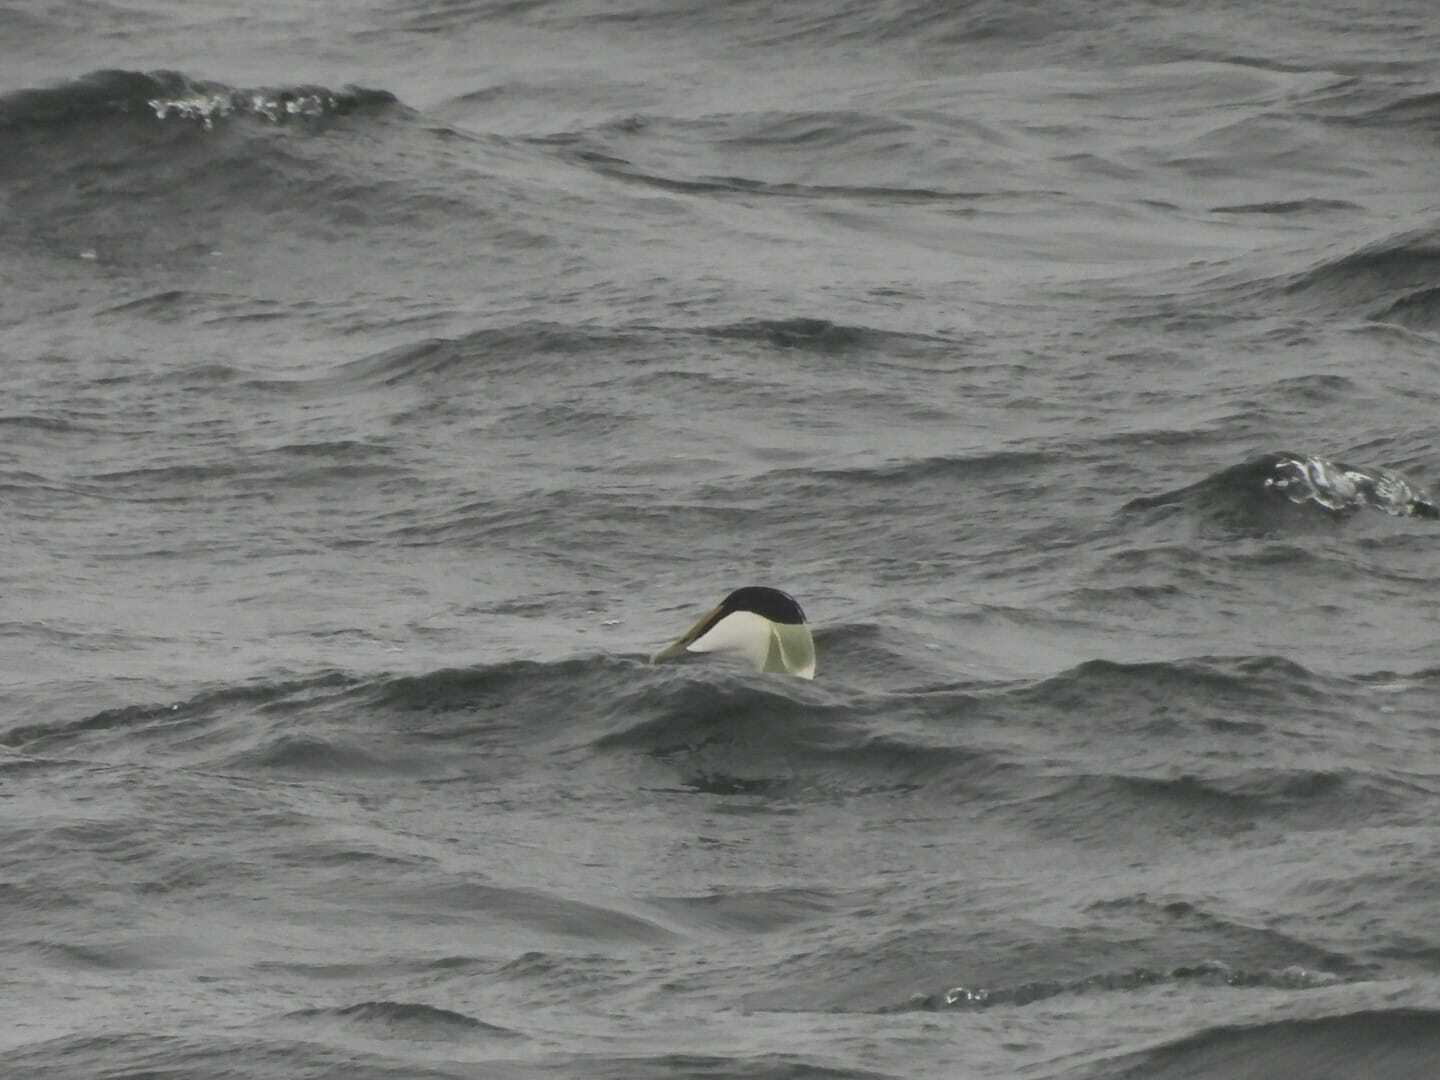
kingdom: Animalia
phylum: Chordata
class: Aves
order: Anseriformes
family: Anatidae
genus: Somateria
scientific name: Somateria mollissima
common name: Common eider
